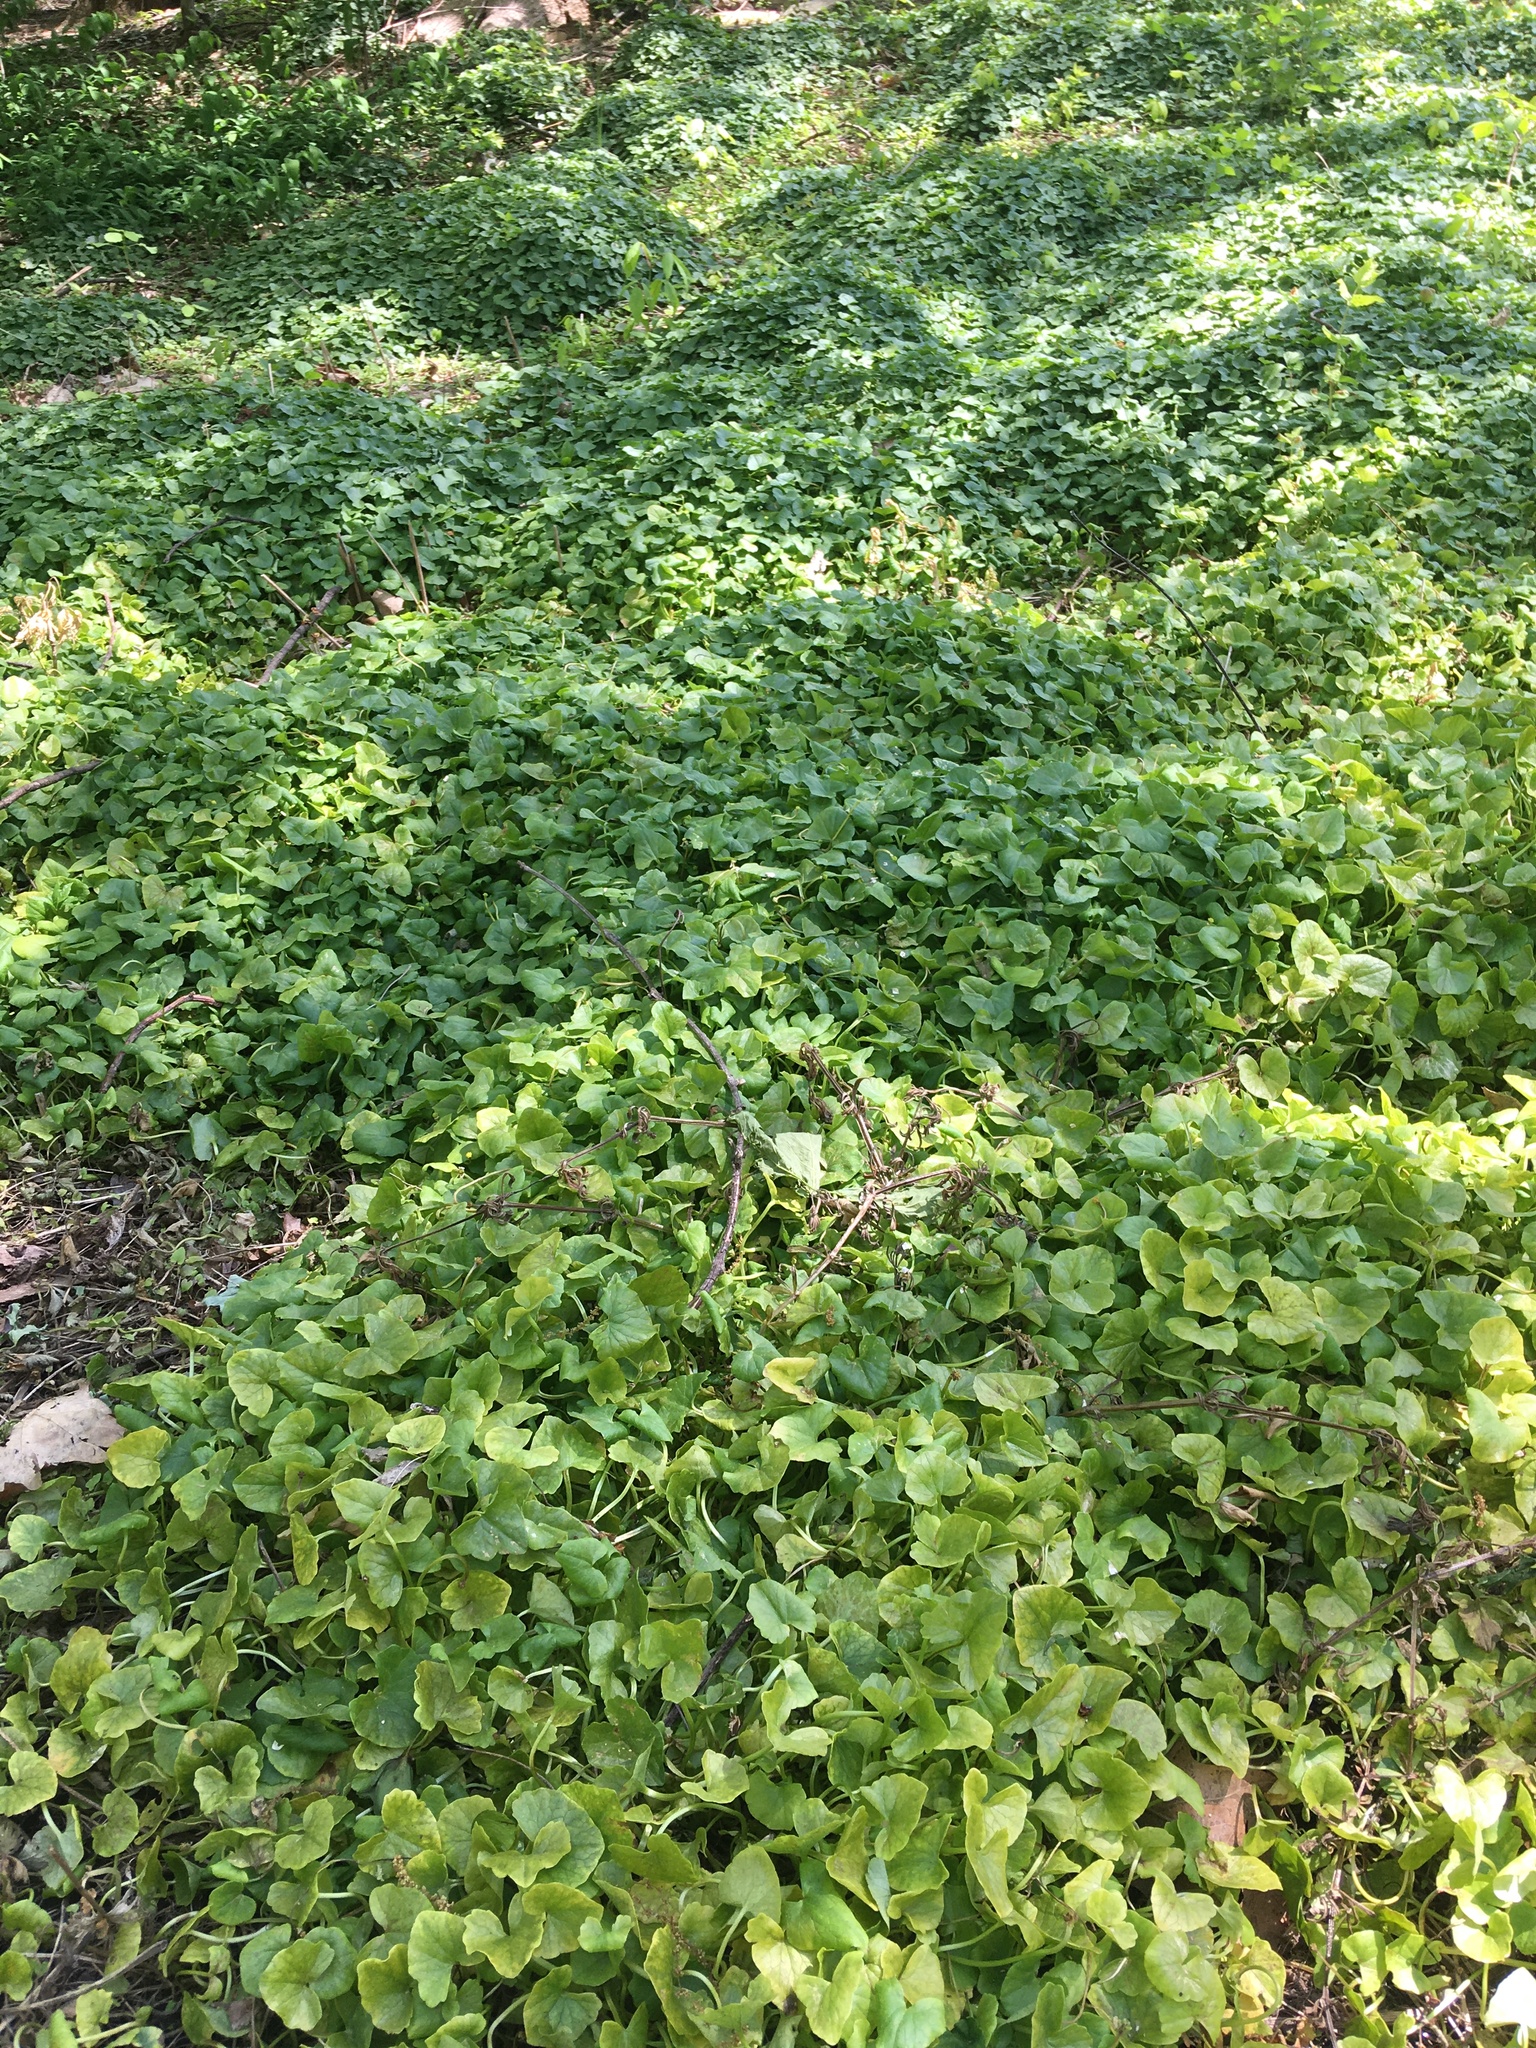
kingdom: Plantae
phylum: Tracheophyta
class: Magnoliopsida
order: Ranunculales
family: Ranunculaceae
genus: Ficaria
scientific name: Ficaria verna
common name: Lesser celandine
